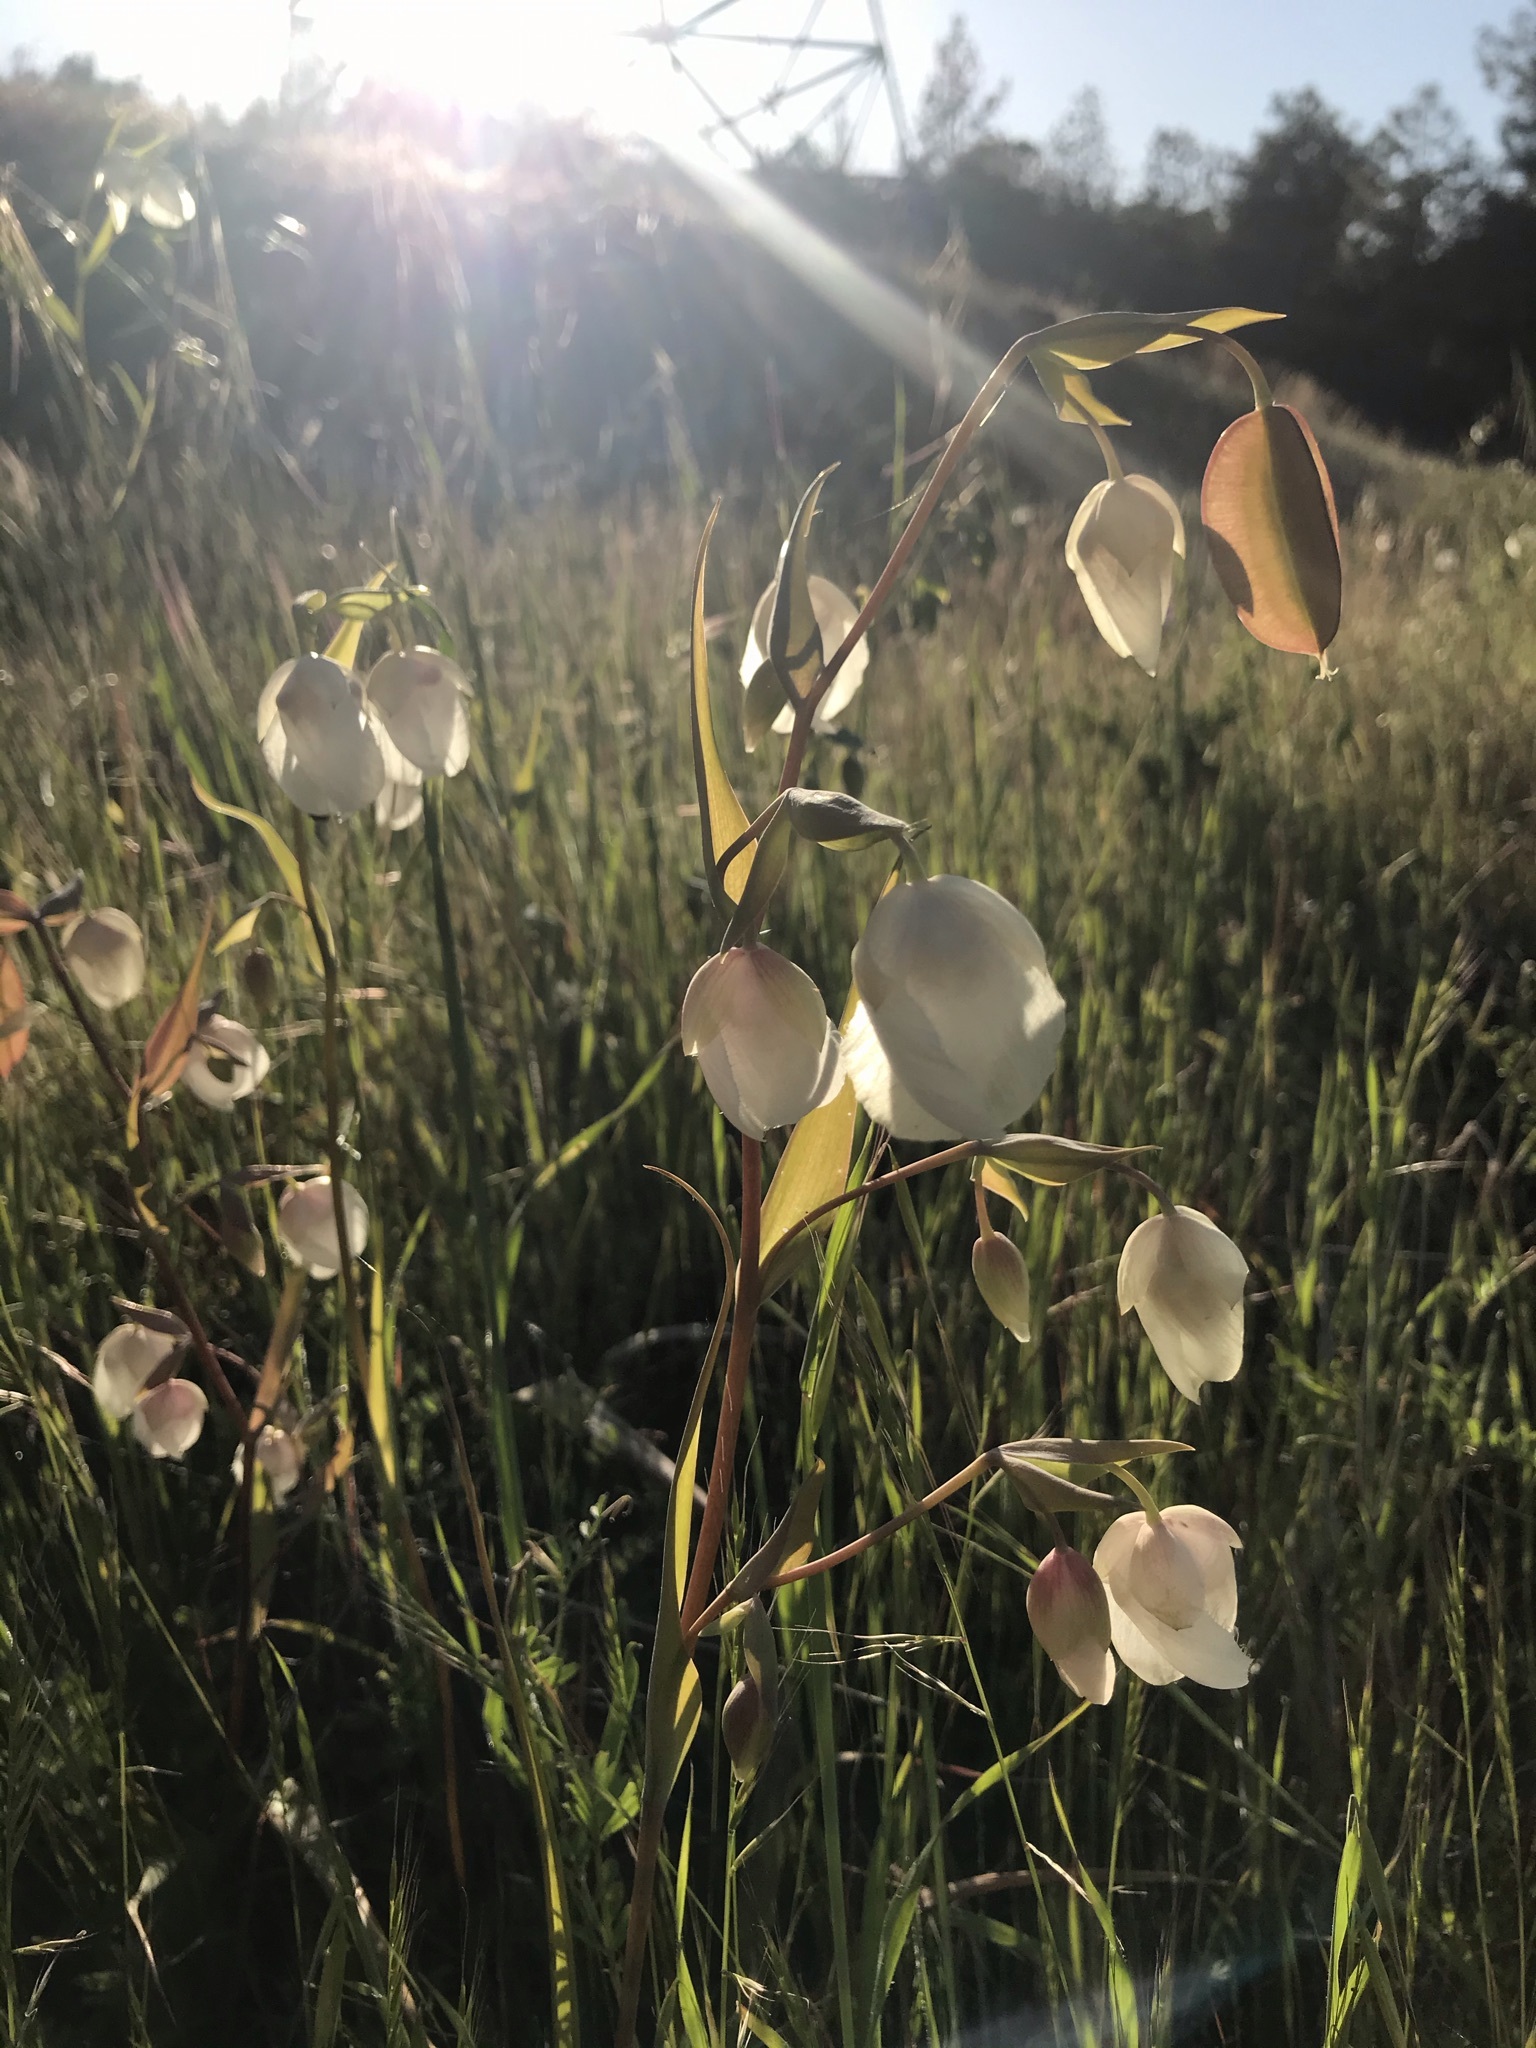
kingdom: Plantae
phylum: Tracheophyta
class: Liliopsida
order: Liliales
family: Liliaceae
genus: Calochortus
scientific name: Calochortus albus
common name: Fairy-lantern
